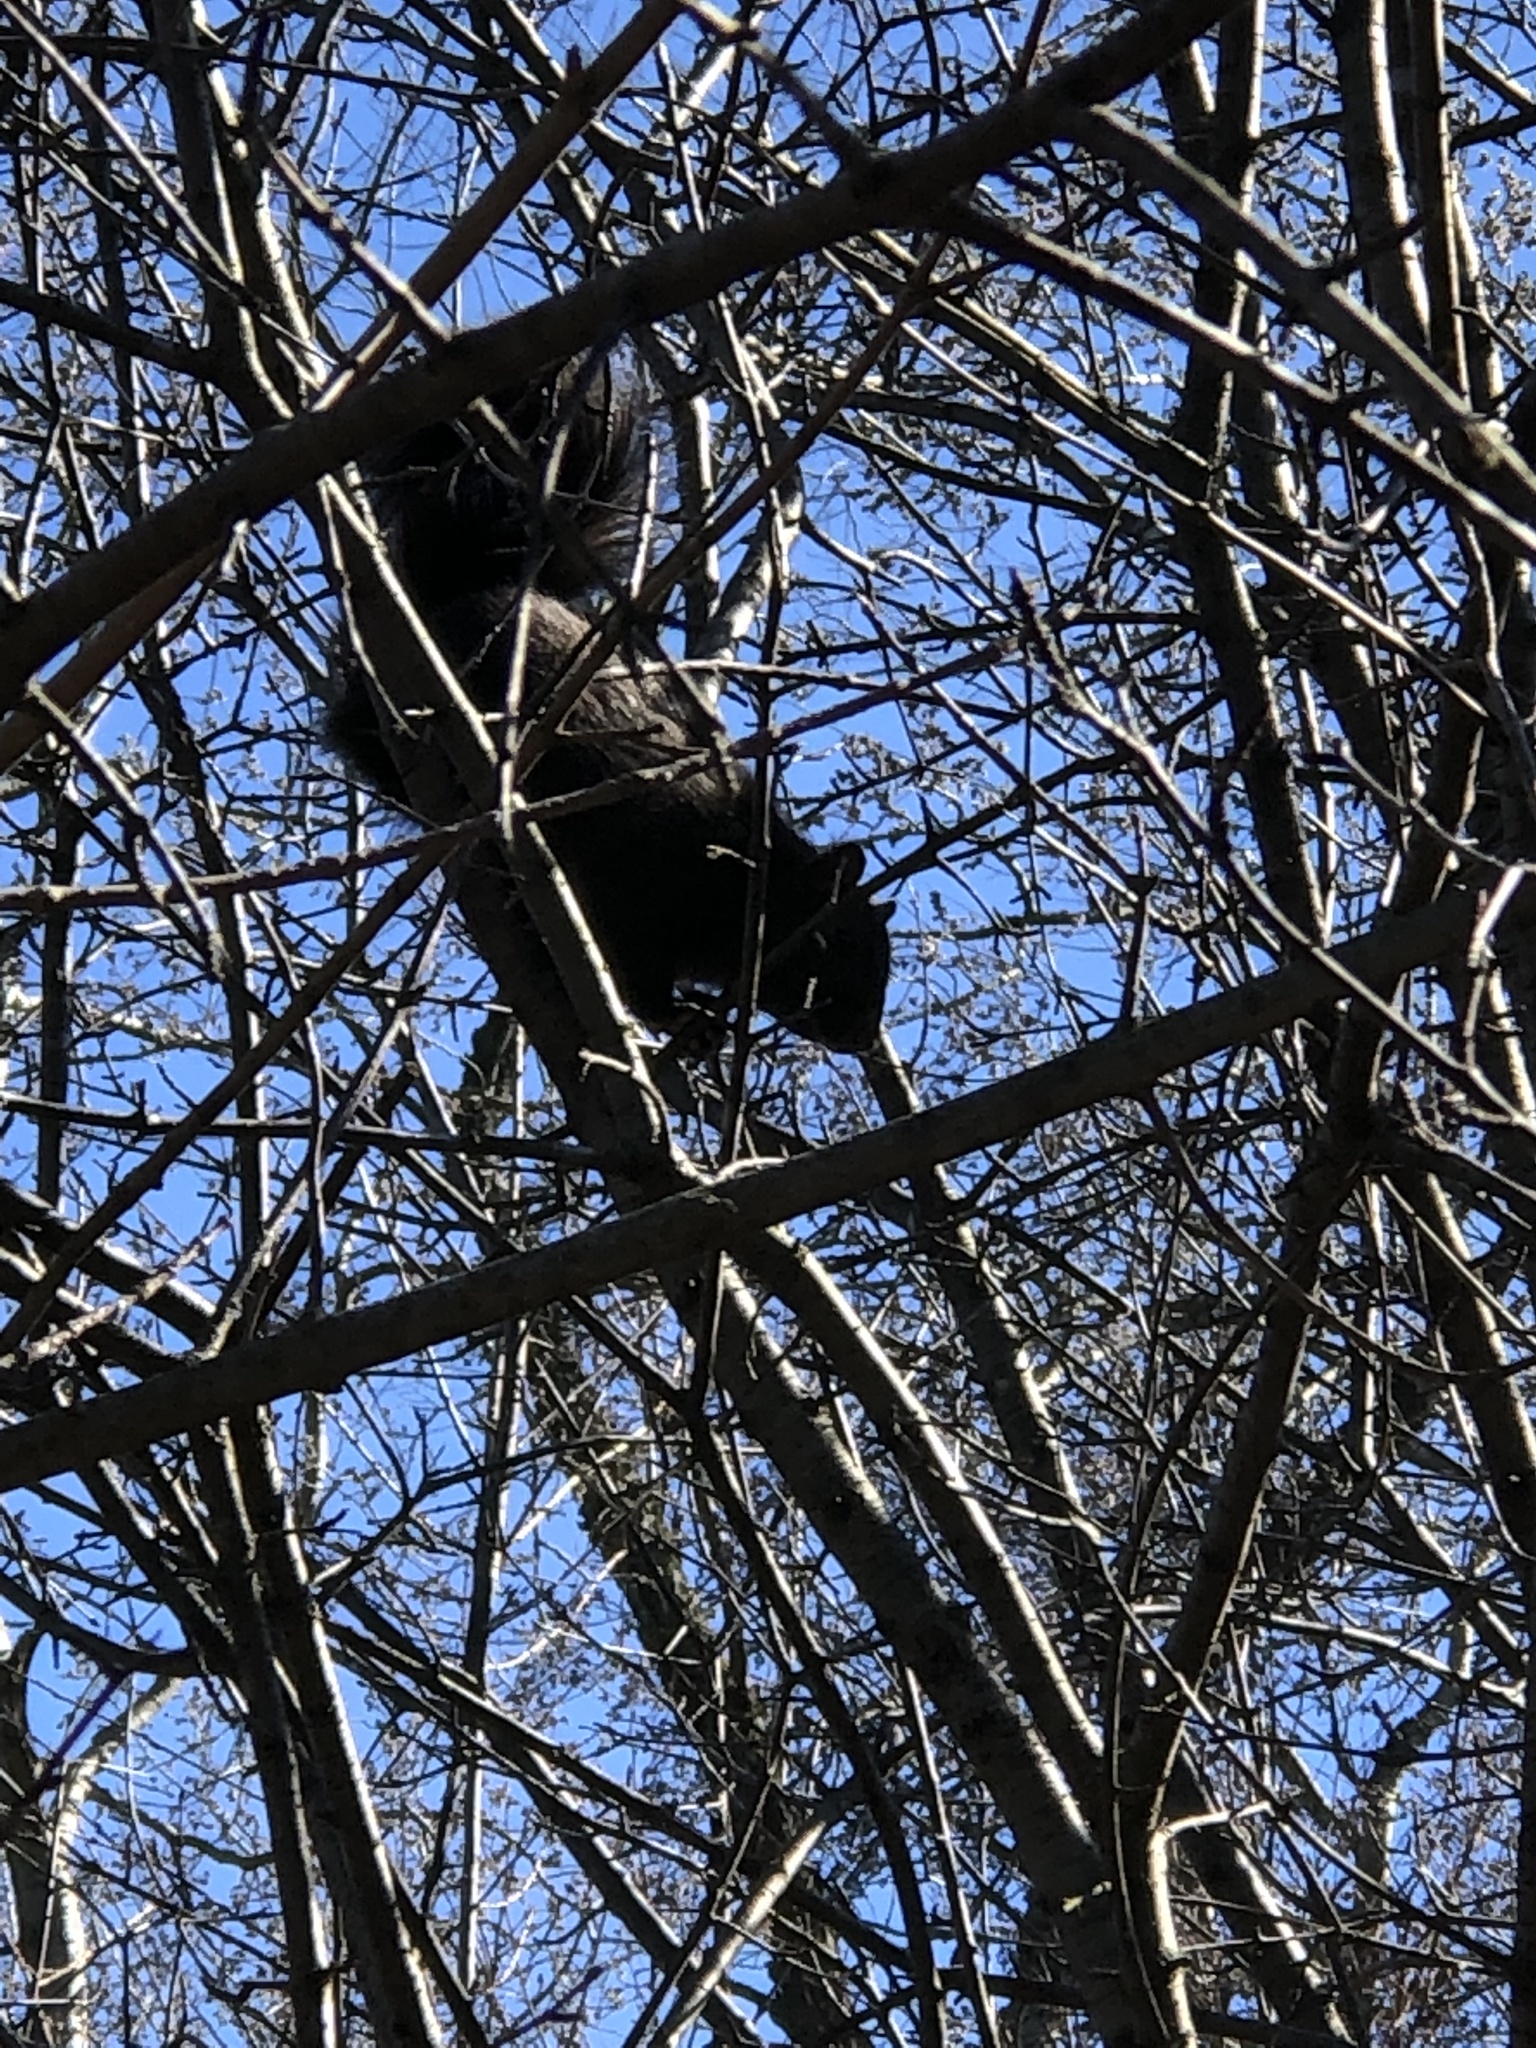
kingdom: Animalia
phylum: Chordata
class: Mammalia
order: Rodentia
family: Sciuridae
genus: Sciurus
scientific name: Sciurus carolinensis
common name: Eastern gray squirrel
